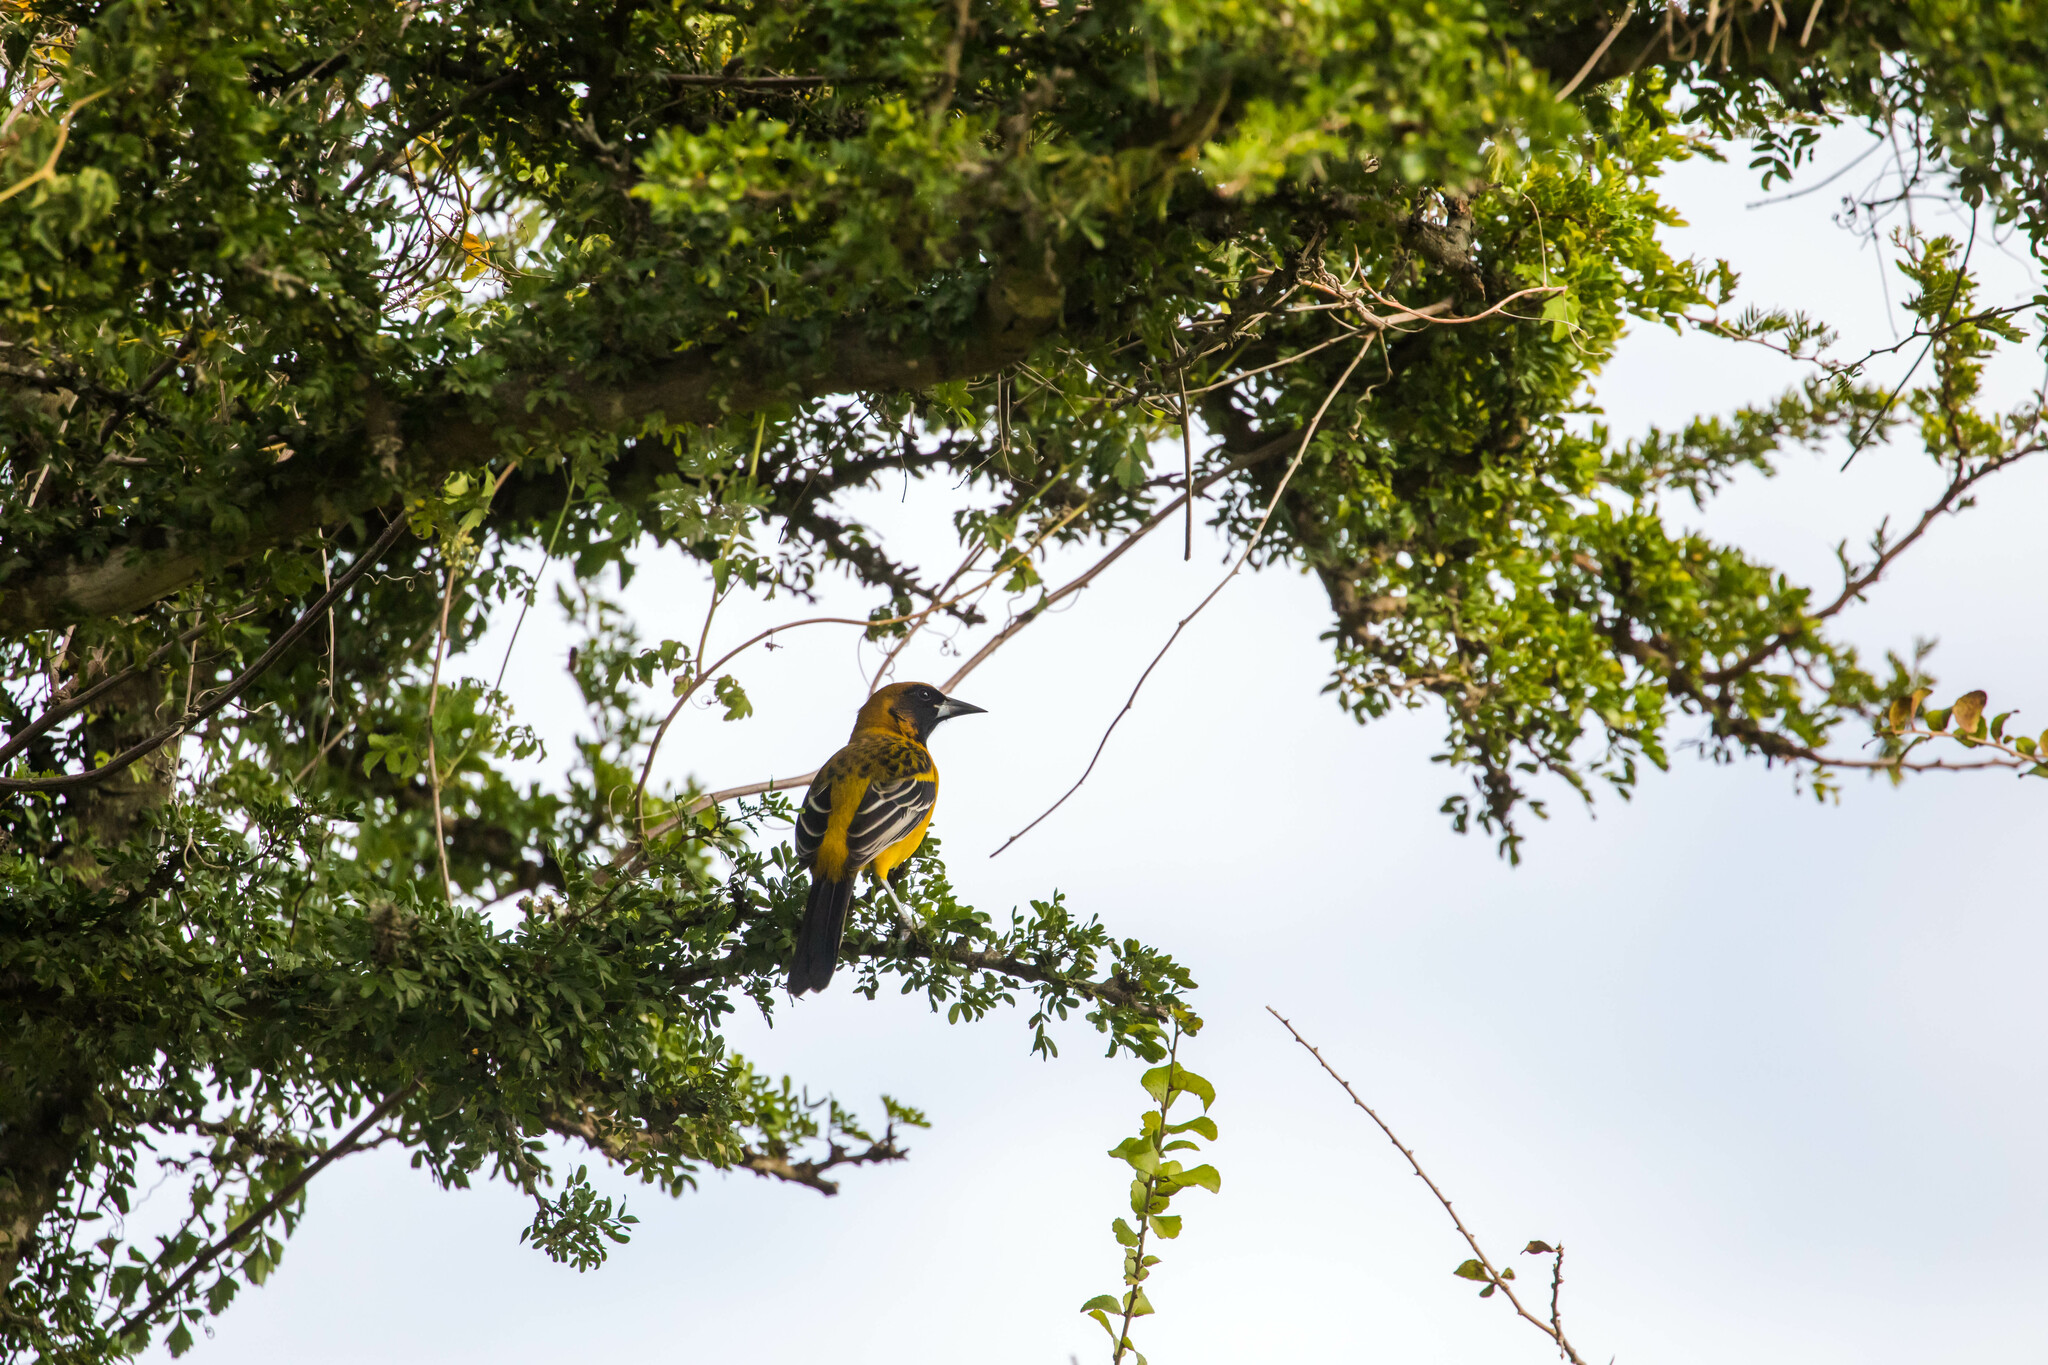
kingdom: Animalia
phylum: Chordata
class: Aves
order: Passeriformes
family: Icteridae
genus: Icterus
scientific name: Icterus
